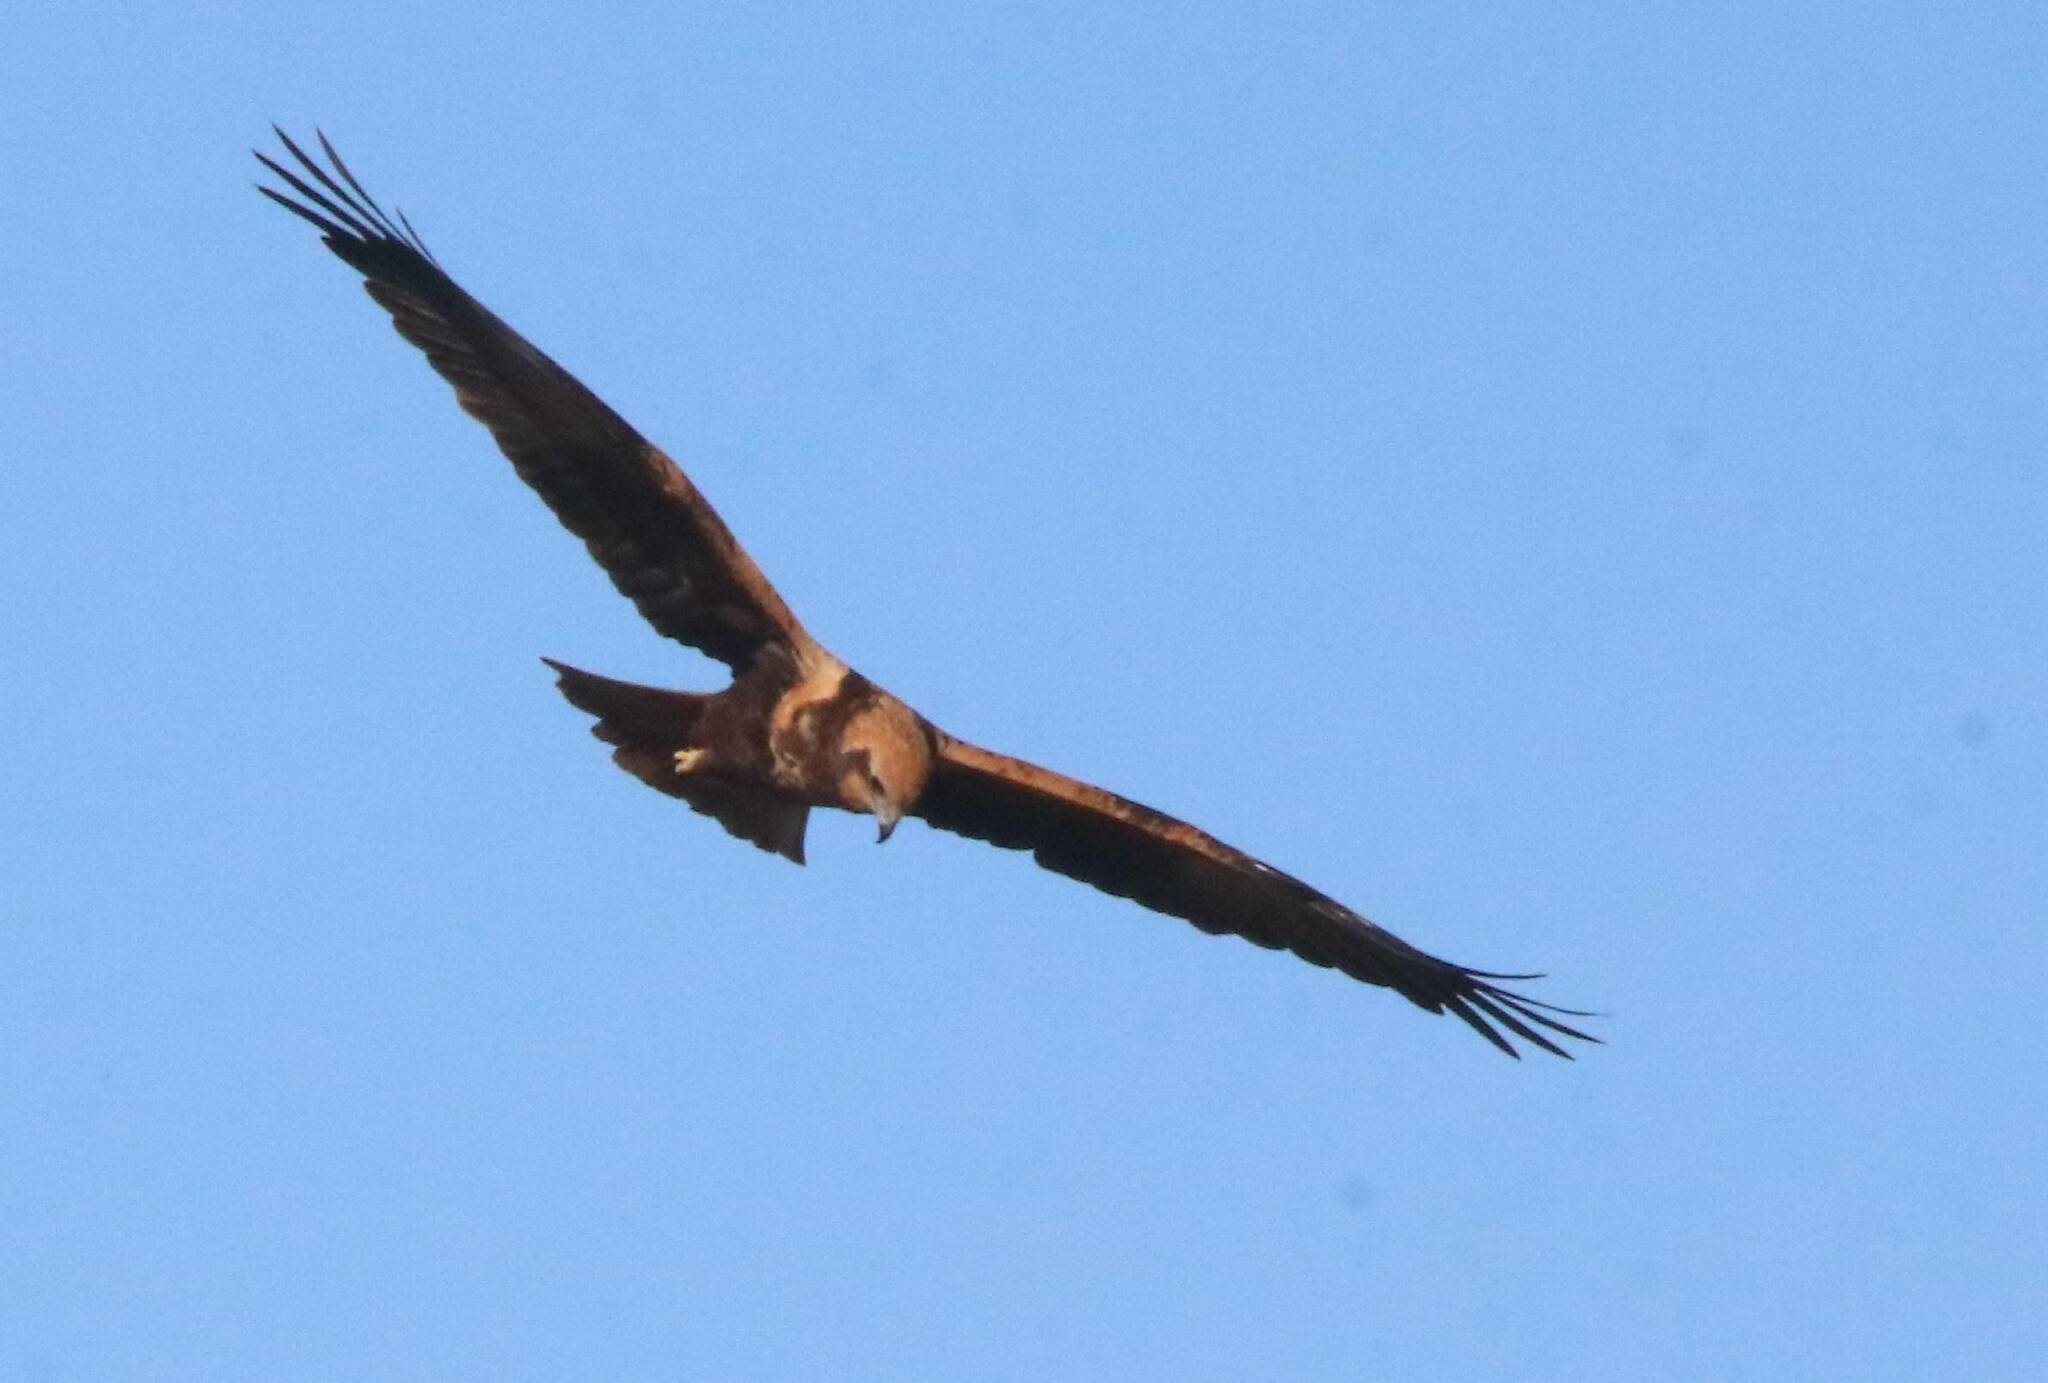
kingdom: Animalia
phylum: Chordata
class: Aves
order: Accipitriformes
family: Accipitridae
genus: Circus
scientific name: Circus aeruginosus
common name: Western marsh harrier
